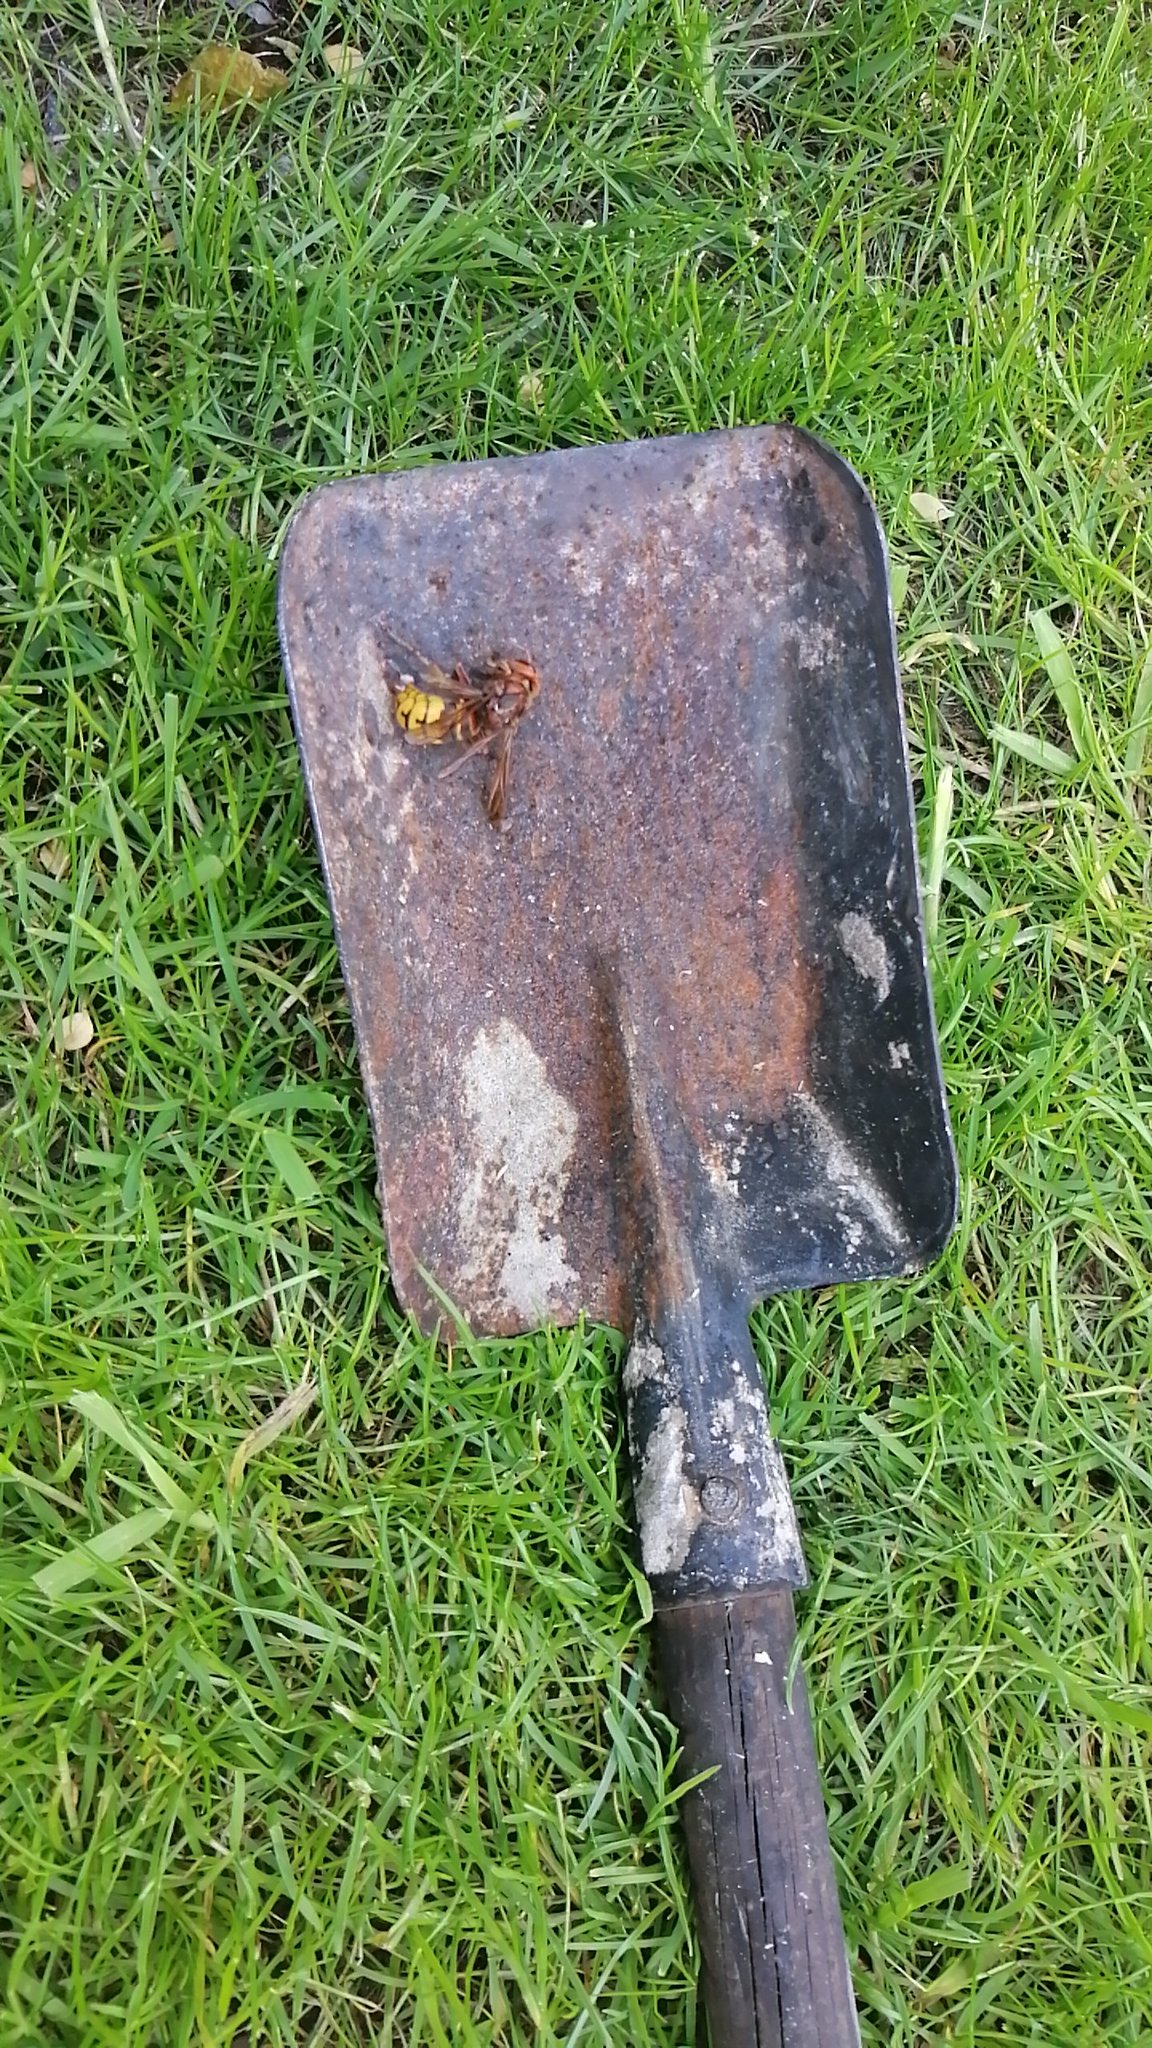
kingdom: Animalia
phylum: Arthropoda
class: Insecta
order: Hymenoptera
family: Vespidae
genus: Vespa
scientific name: Vespa crabro
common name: Hornet
